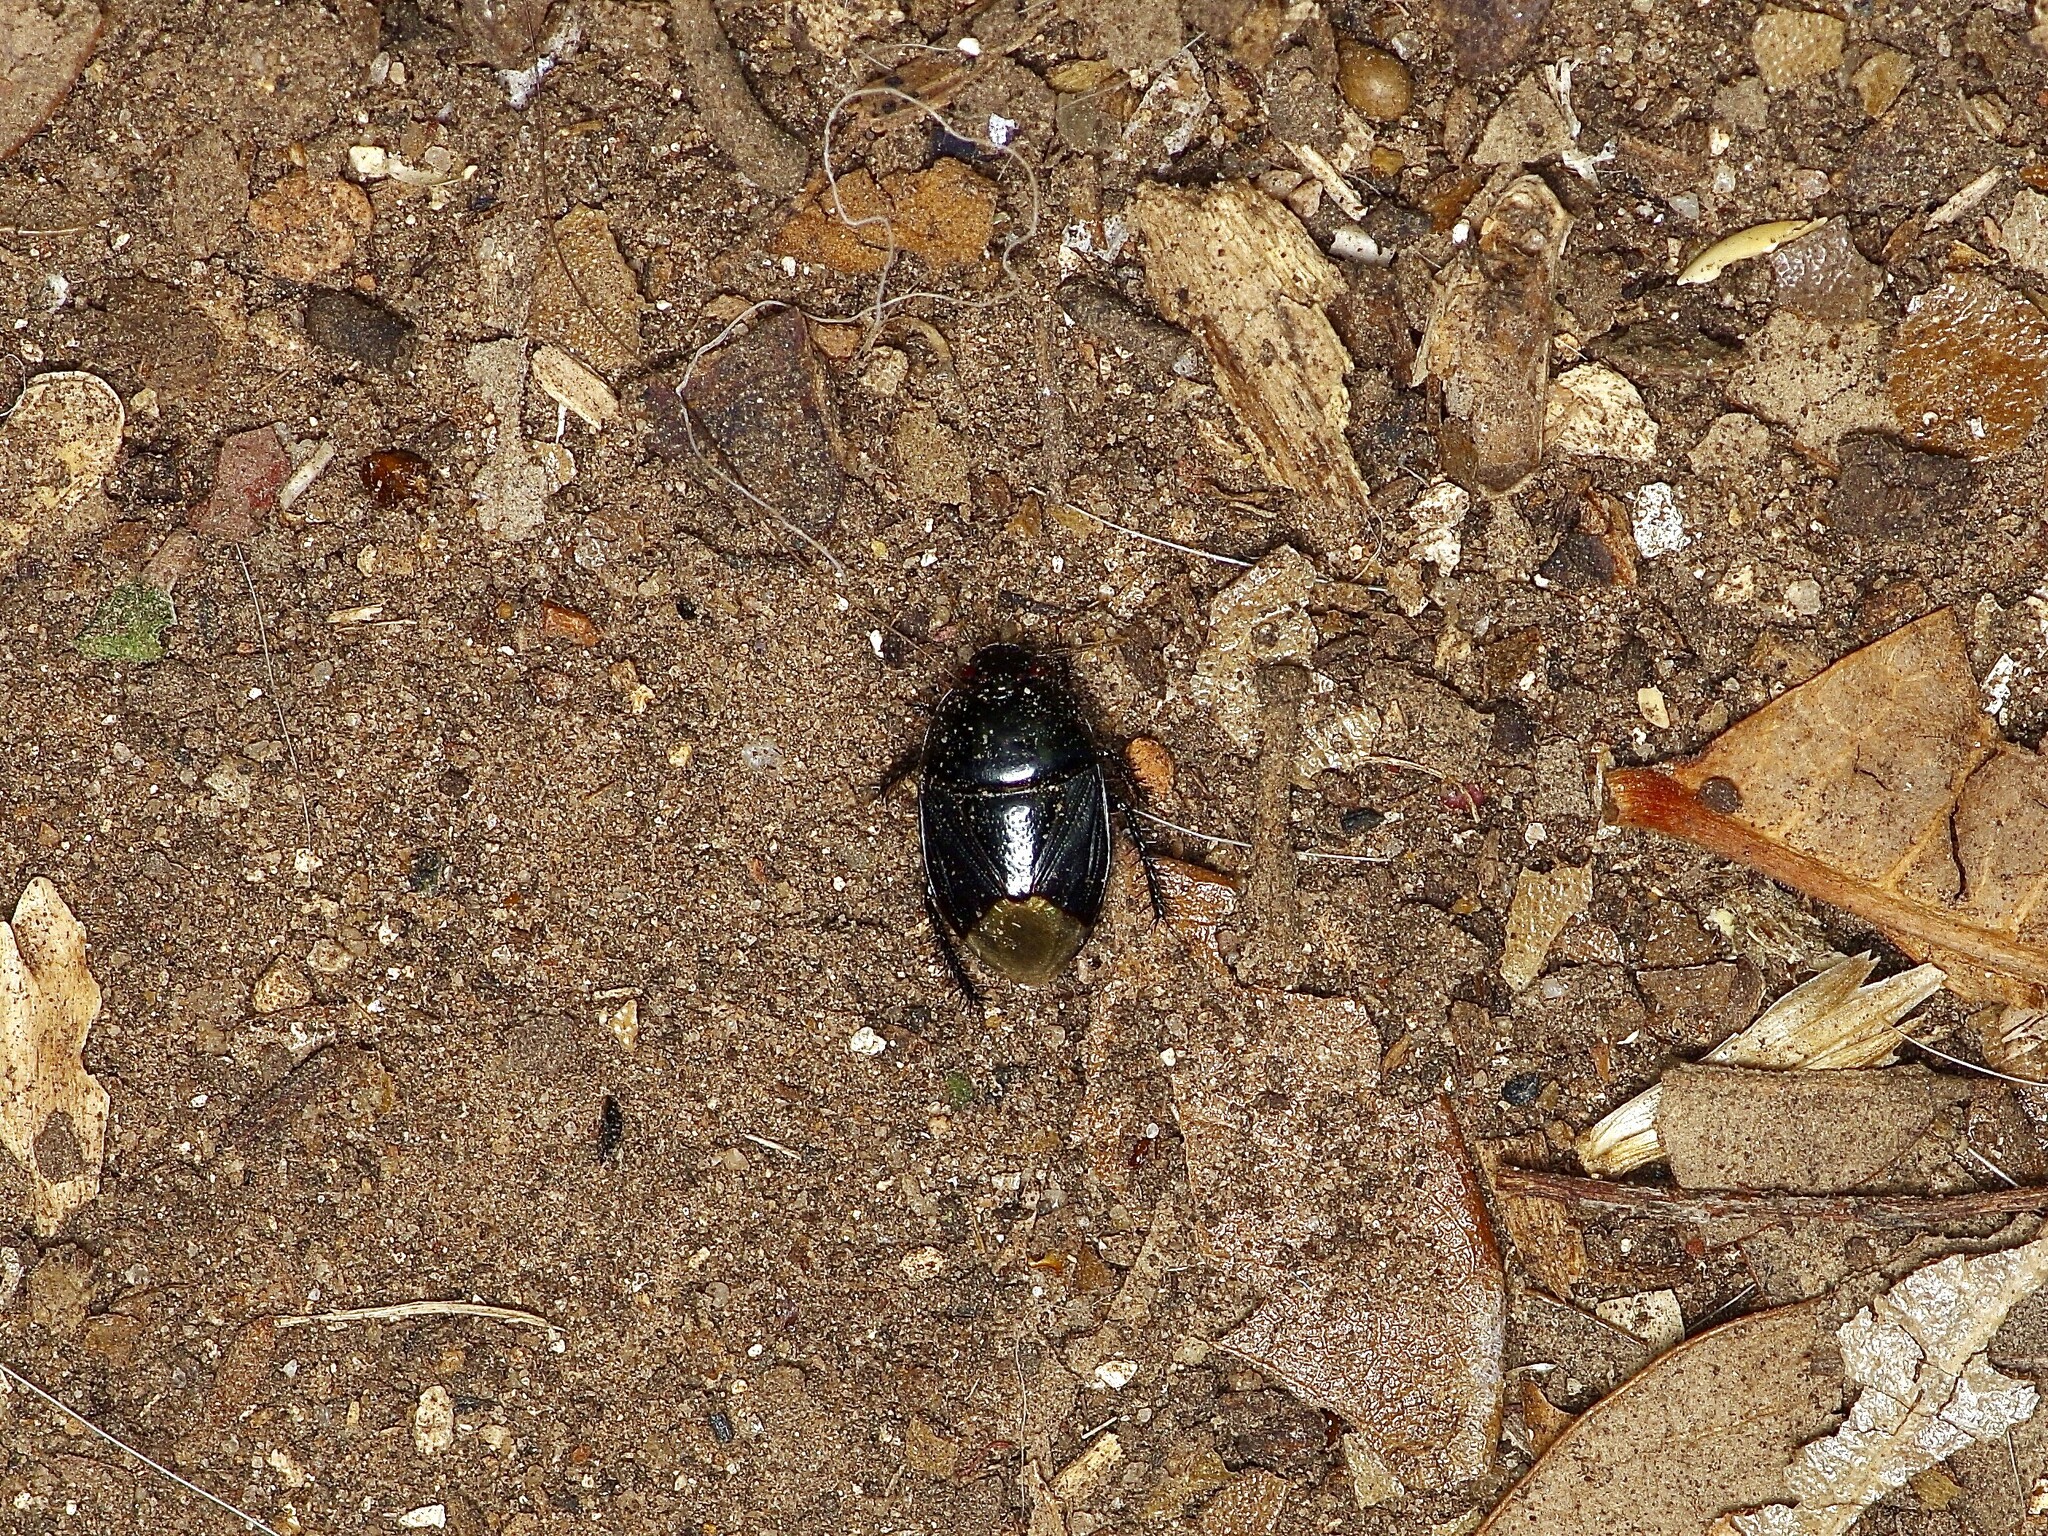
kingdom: Animalia
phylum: Arthropoda
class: Insecta
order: Hemiptera
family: Cydnidae
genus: Pangaeus
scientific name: Pangaeus bilineatus
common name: Burrower bug
